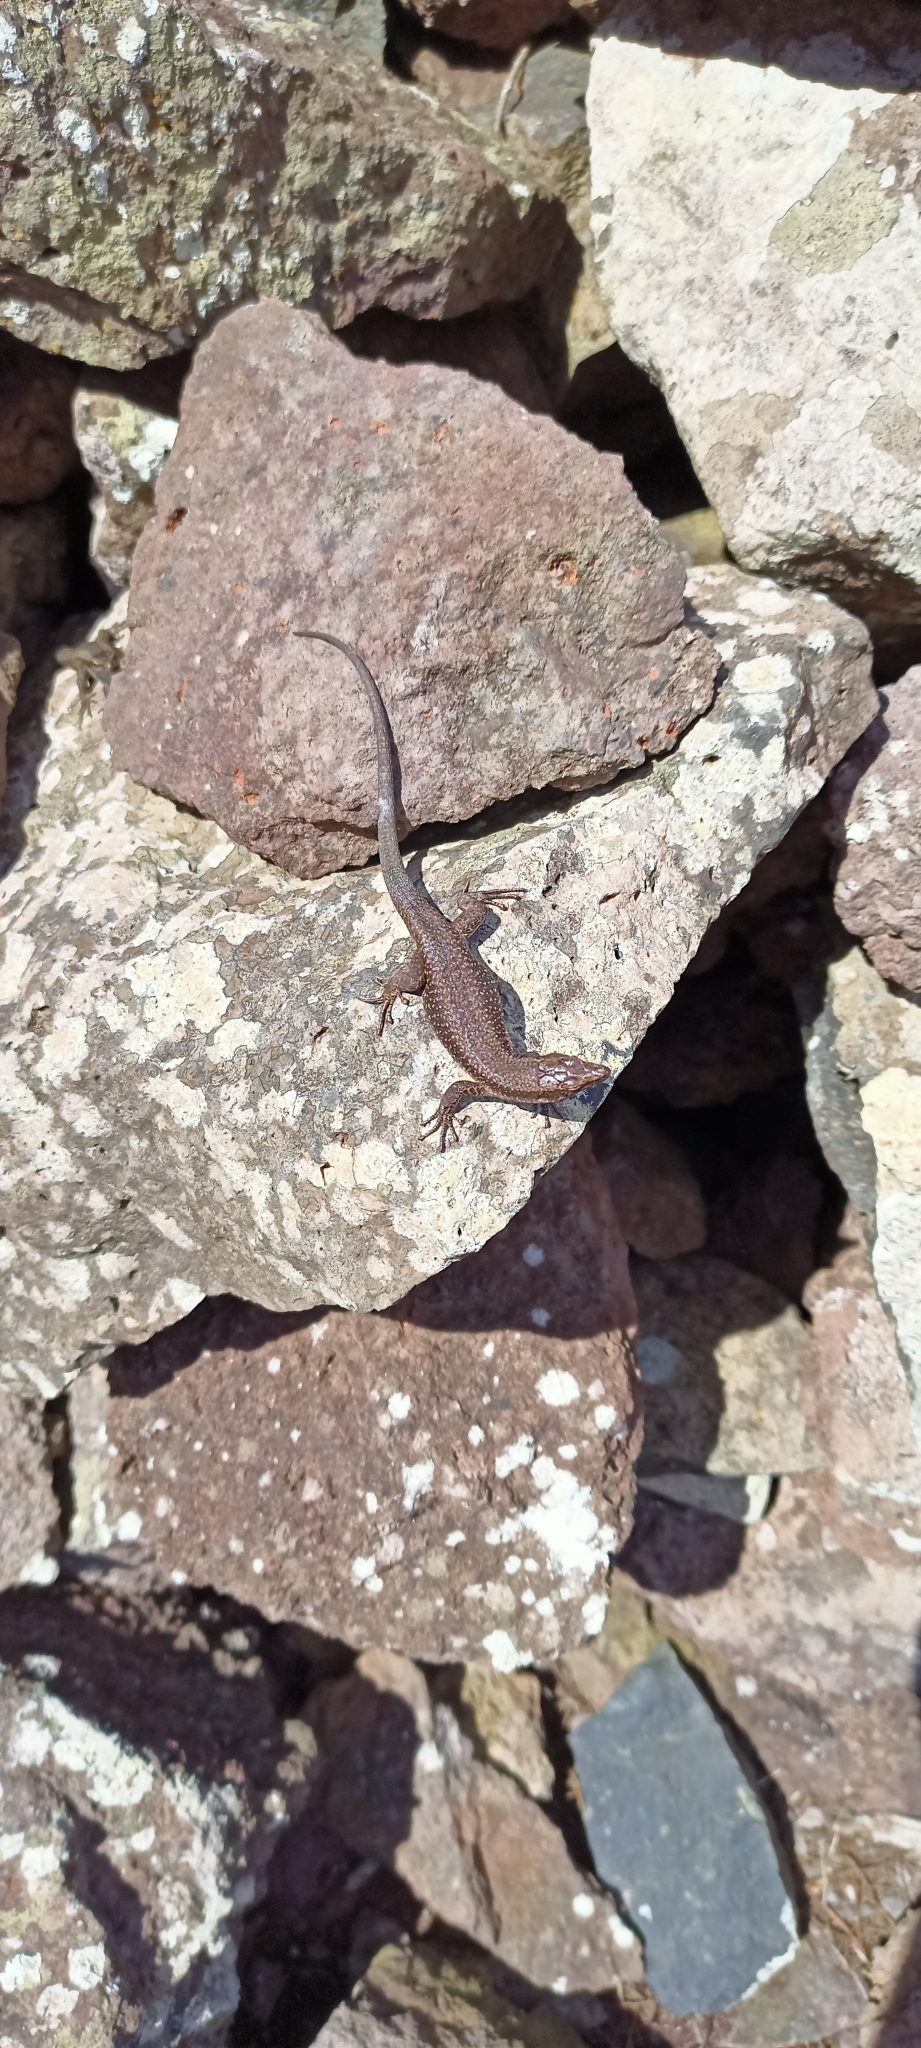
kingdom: Animalia
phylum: Chordata
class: Squamata
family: Lacertidae
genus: Teira
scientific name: Teira dugesii
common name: Madeira lizard
